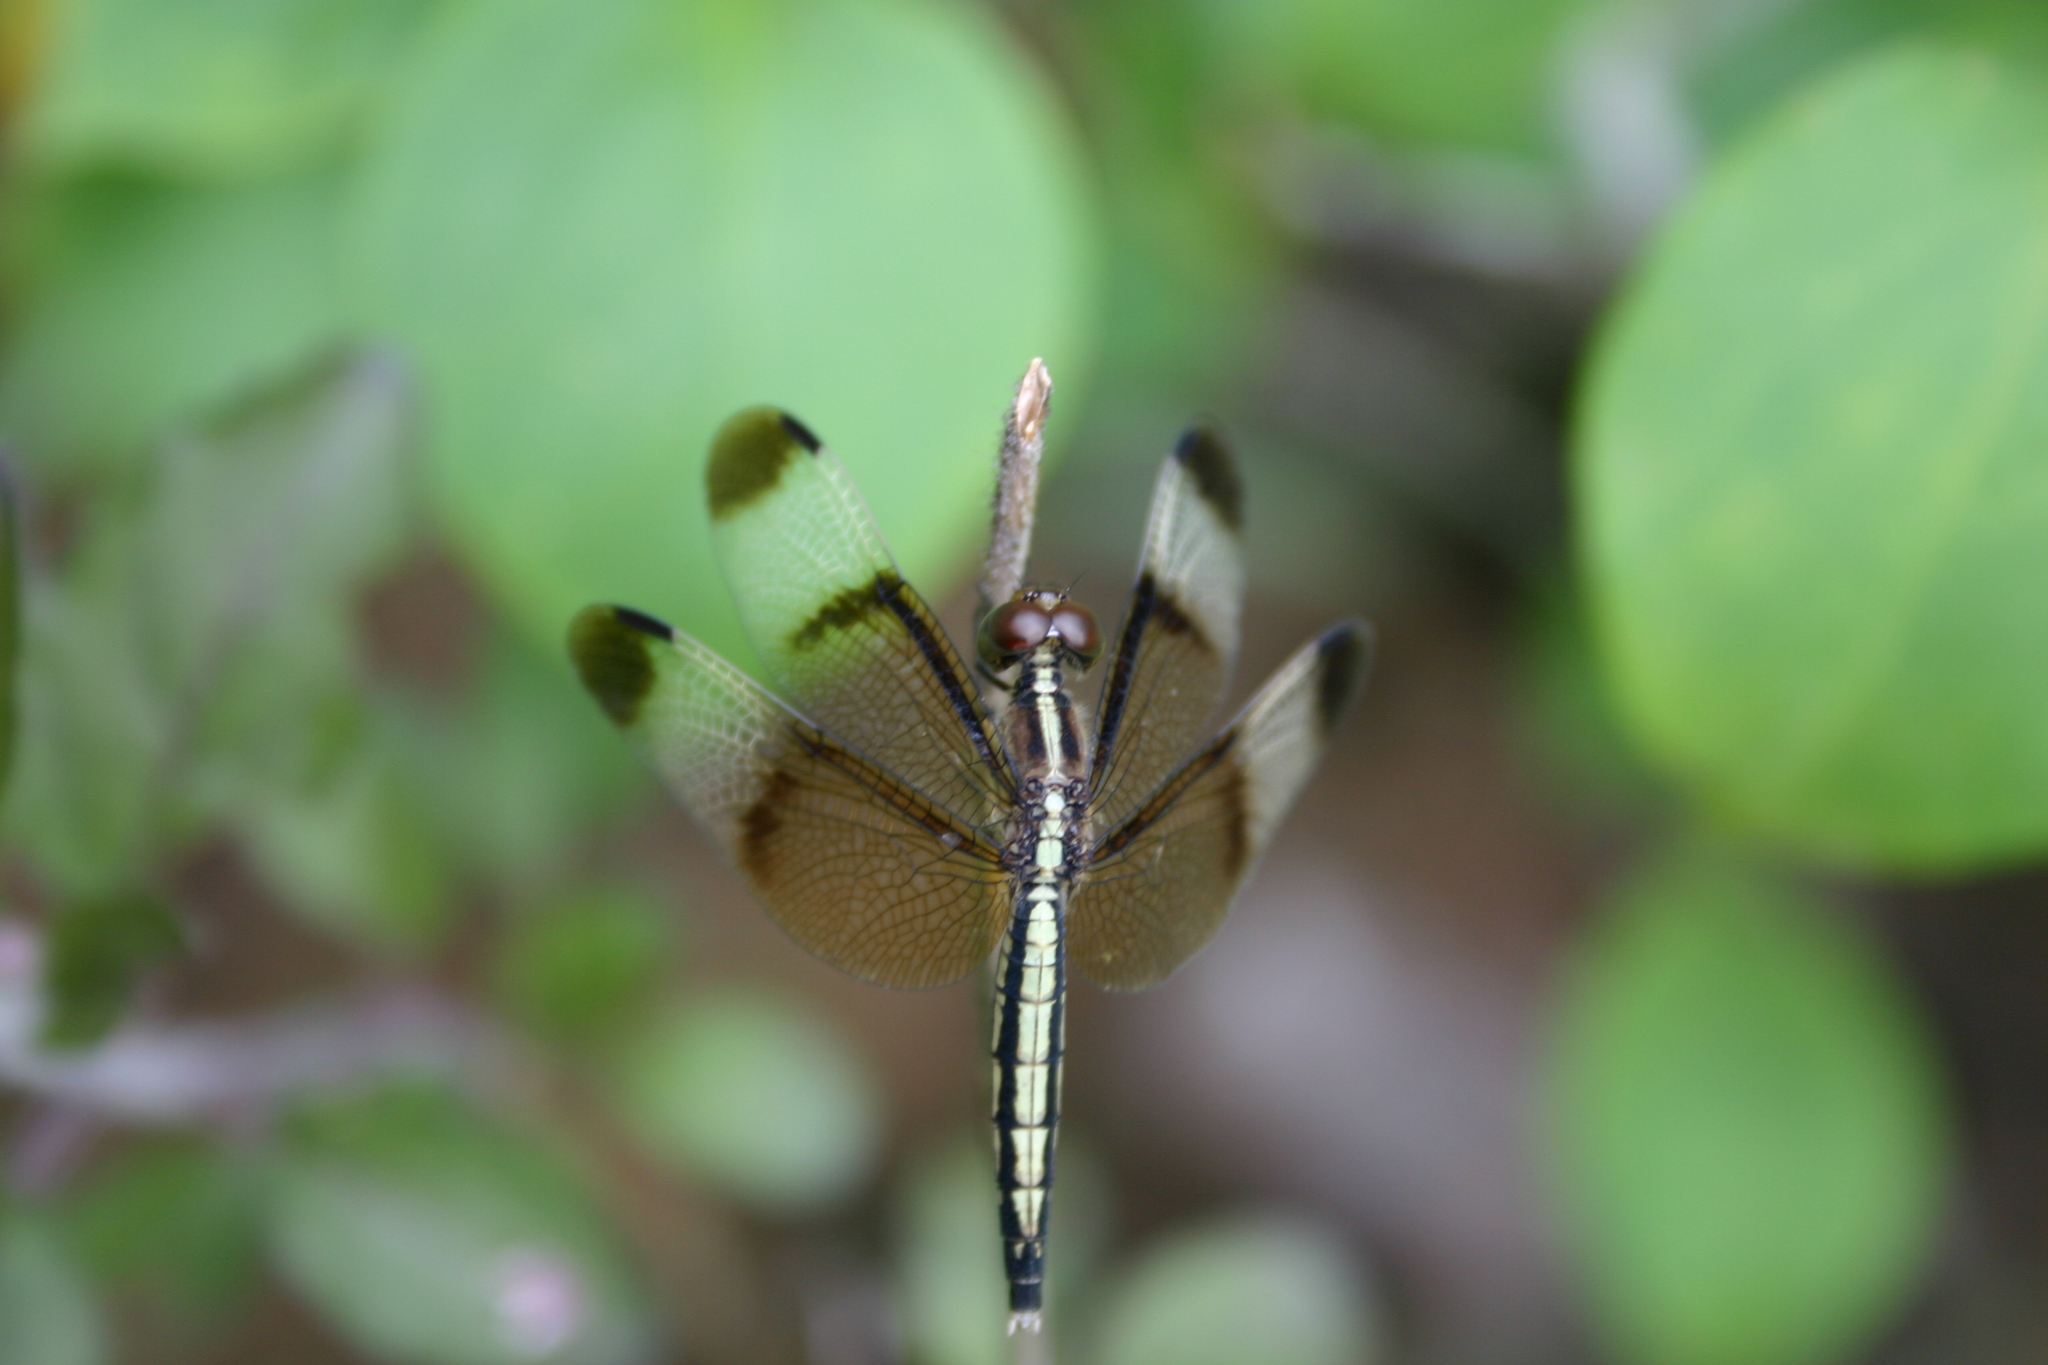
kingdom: Animalia
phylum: Arthropoda
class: Insecta
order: Odonata
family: Libellulidae
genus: Neurothemis
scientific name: Neurothemis tullia
